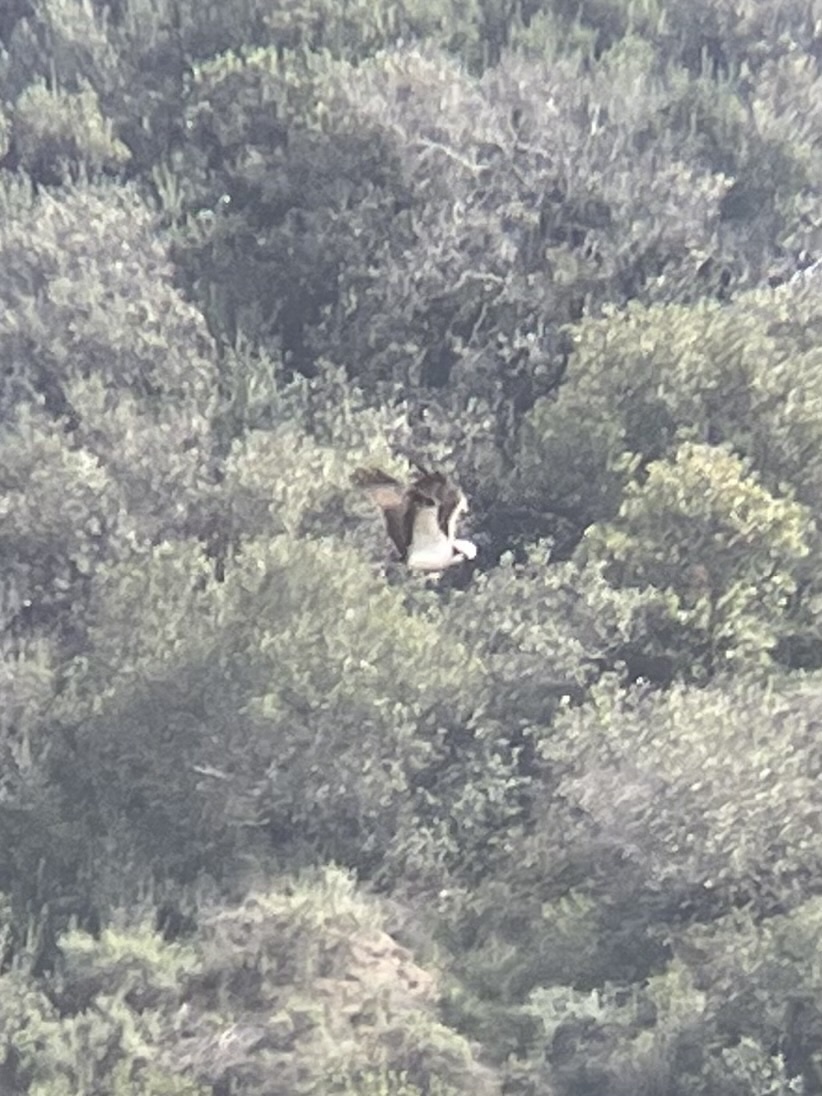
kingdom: Animalia
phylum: Chordata
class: Aves
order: Accipitriformes
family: Pandionidae
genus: Pandion
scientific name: Pandion haliaetus
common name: Osprey
